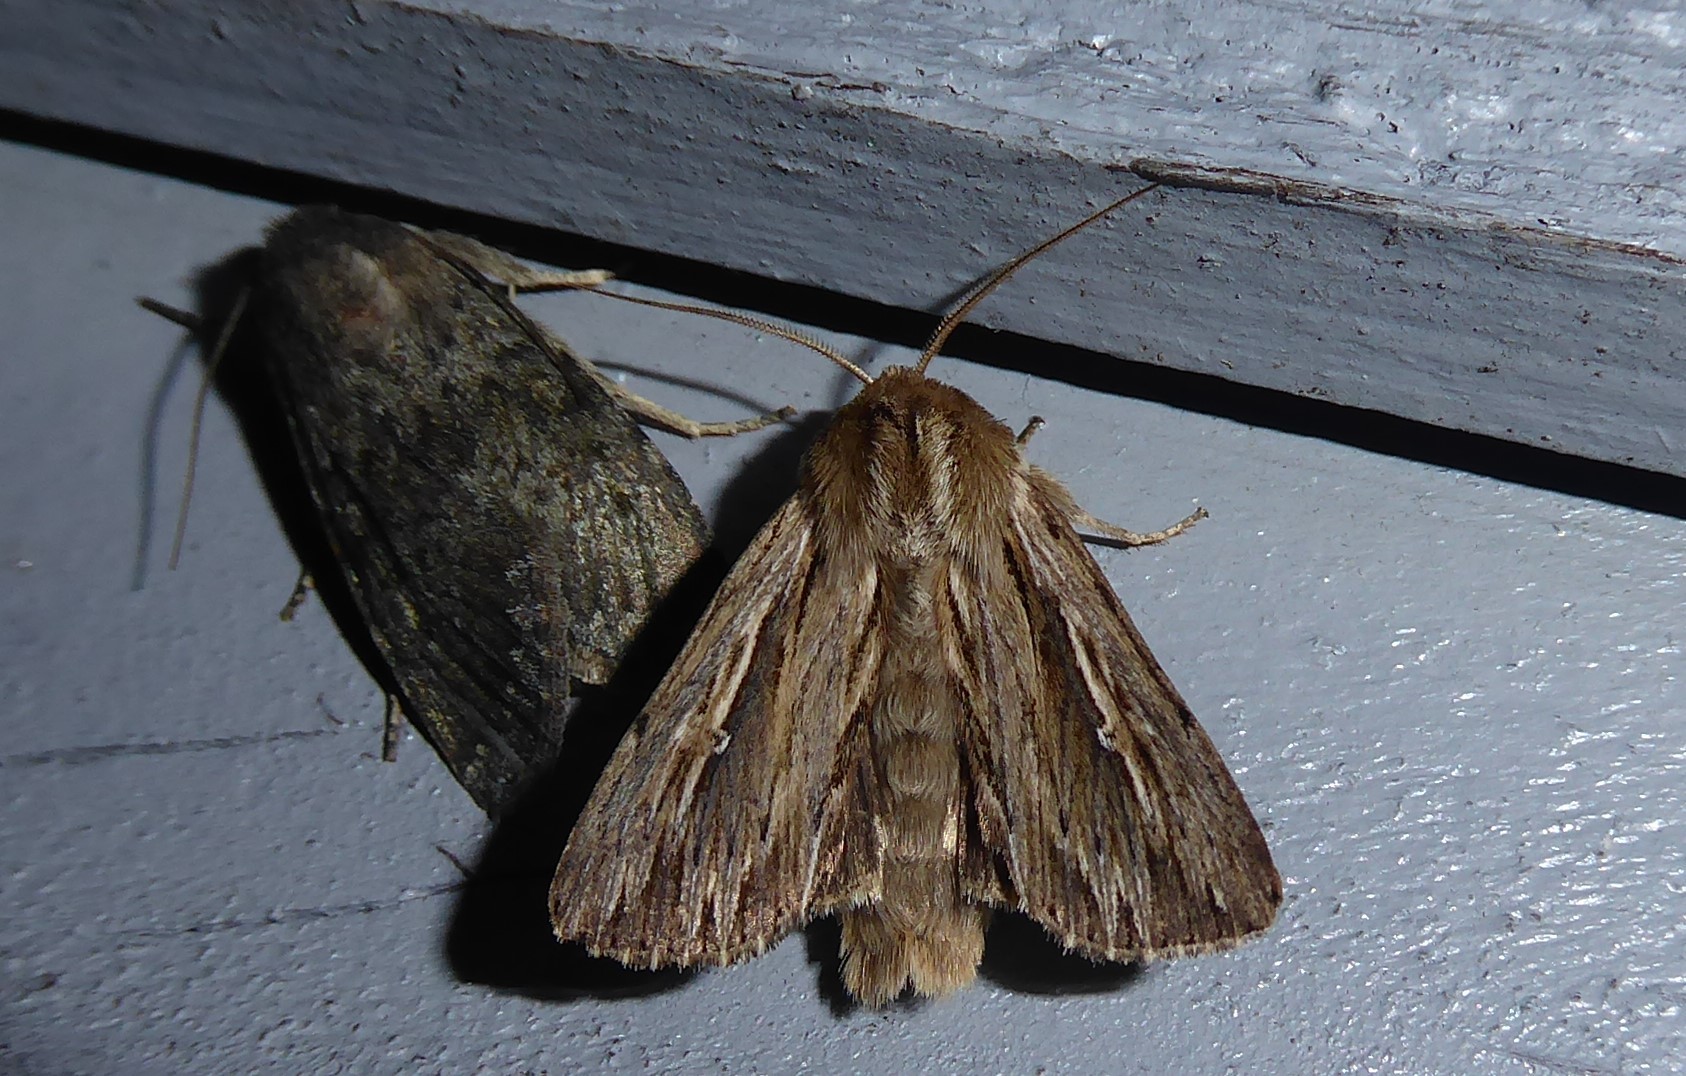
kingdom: Animalia
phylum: Arthropoda
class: Insecta
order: Lepidoptera
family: Noctuidae
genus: Persectania
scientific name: Persectania aversa
